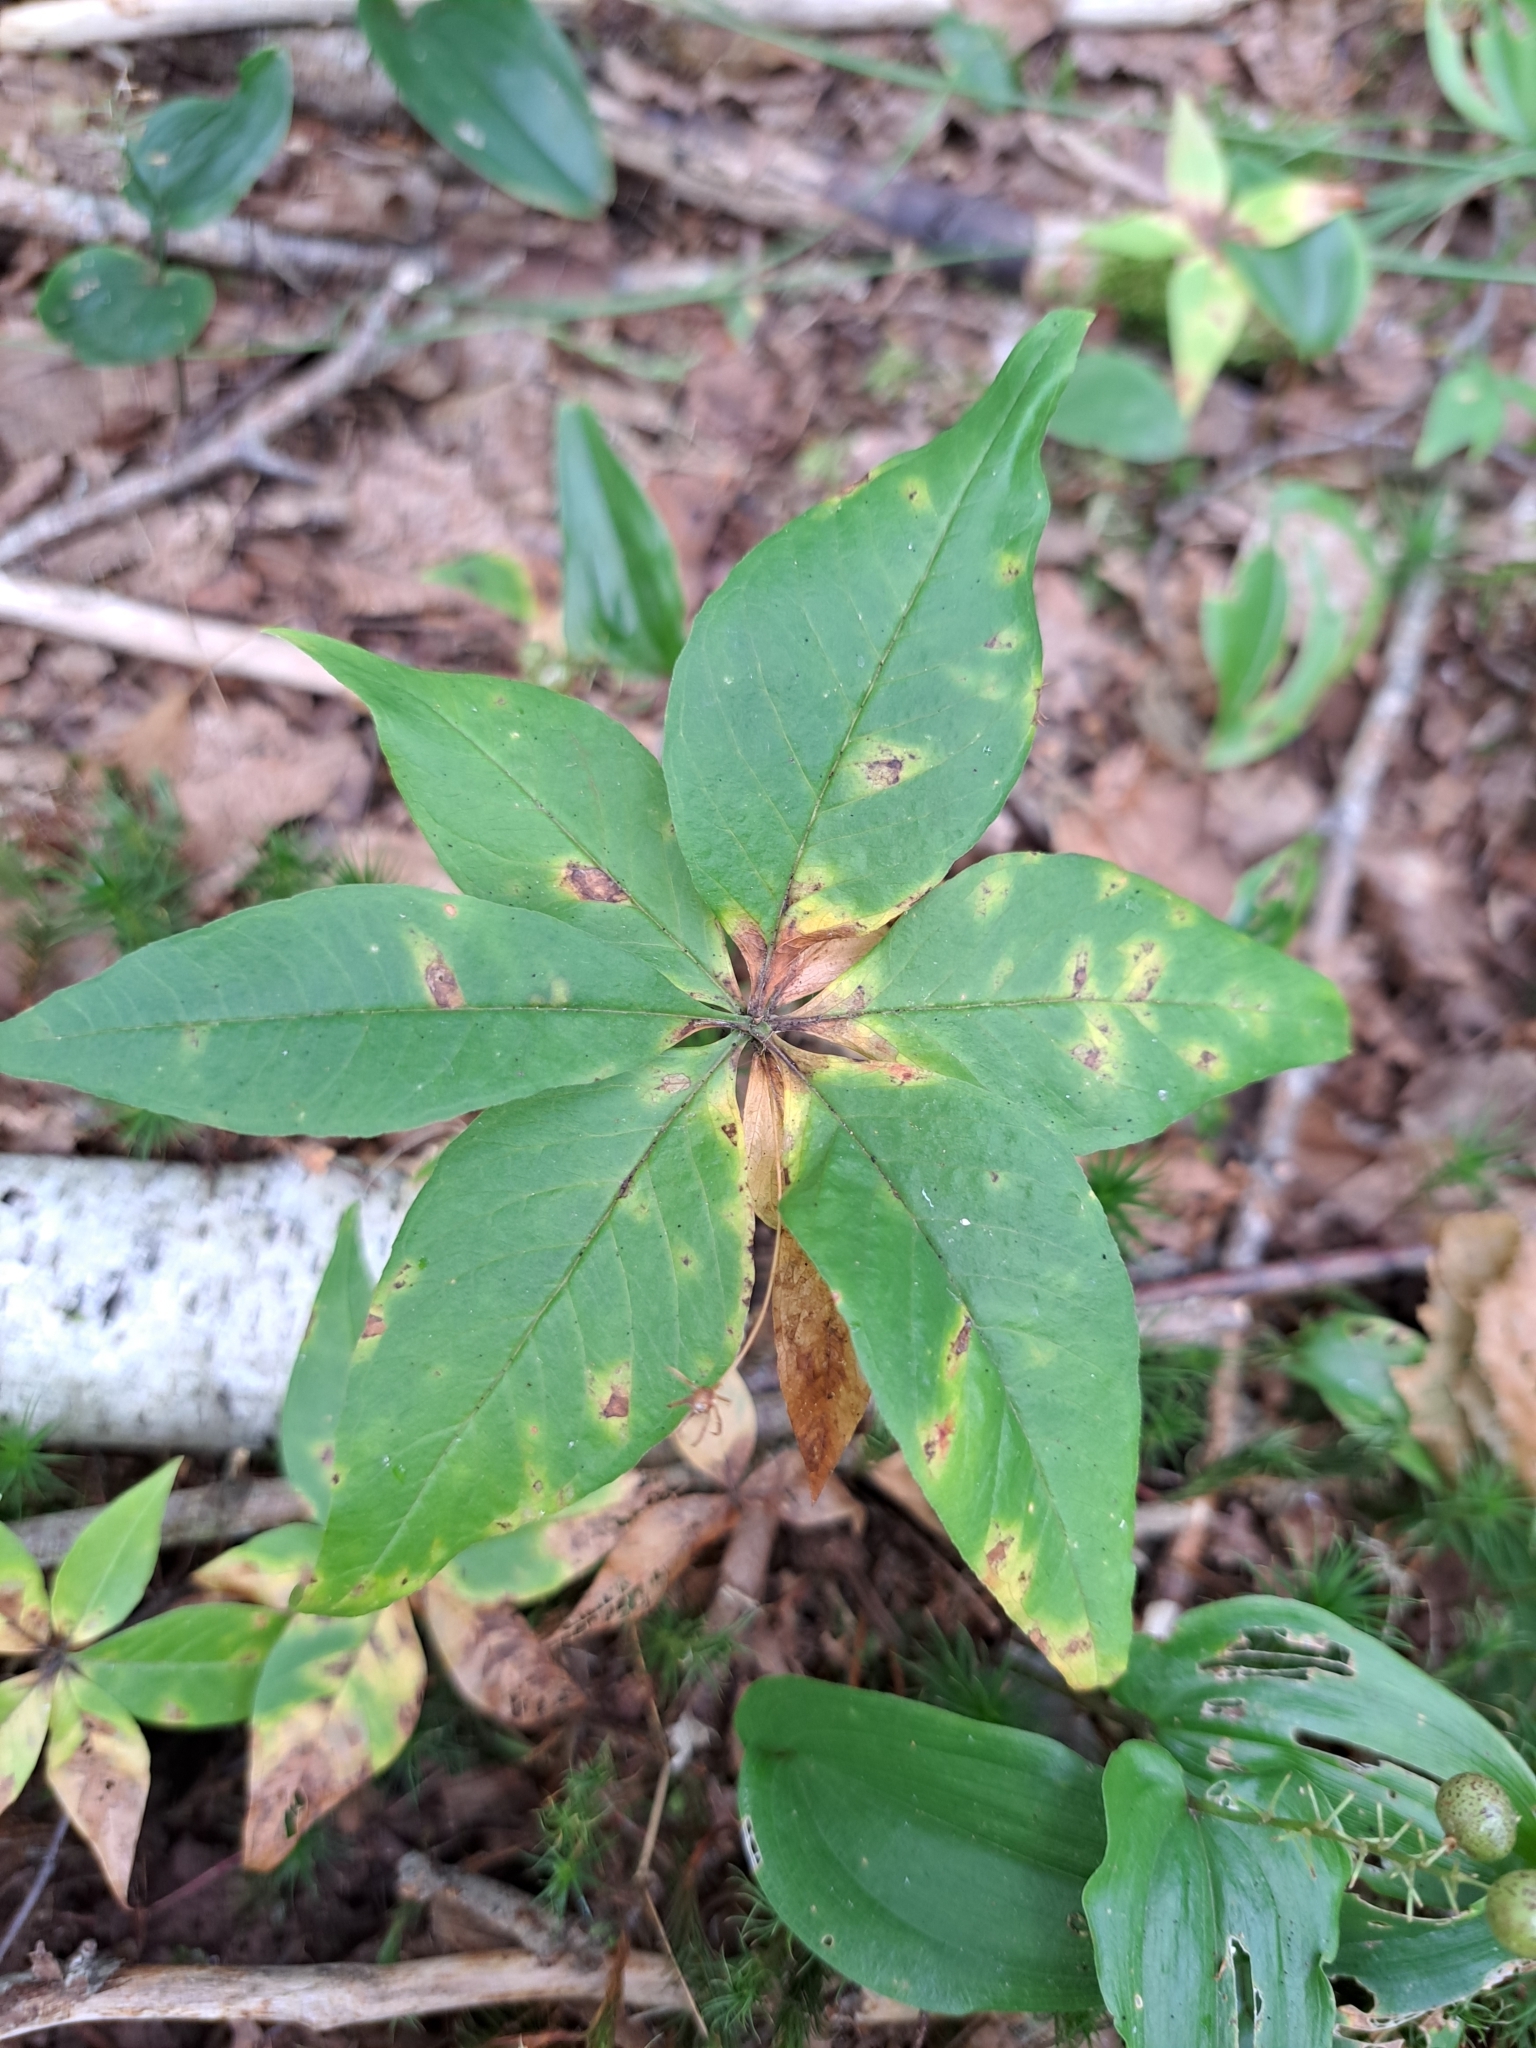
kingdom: Plantae
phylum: Tracheophyta
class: Magnoliopsida
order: Ericales
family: Primulaceae
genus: Lysimachia
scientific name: Lysimachia borealis
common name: American starflower
